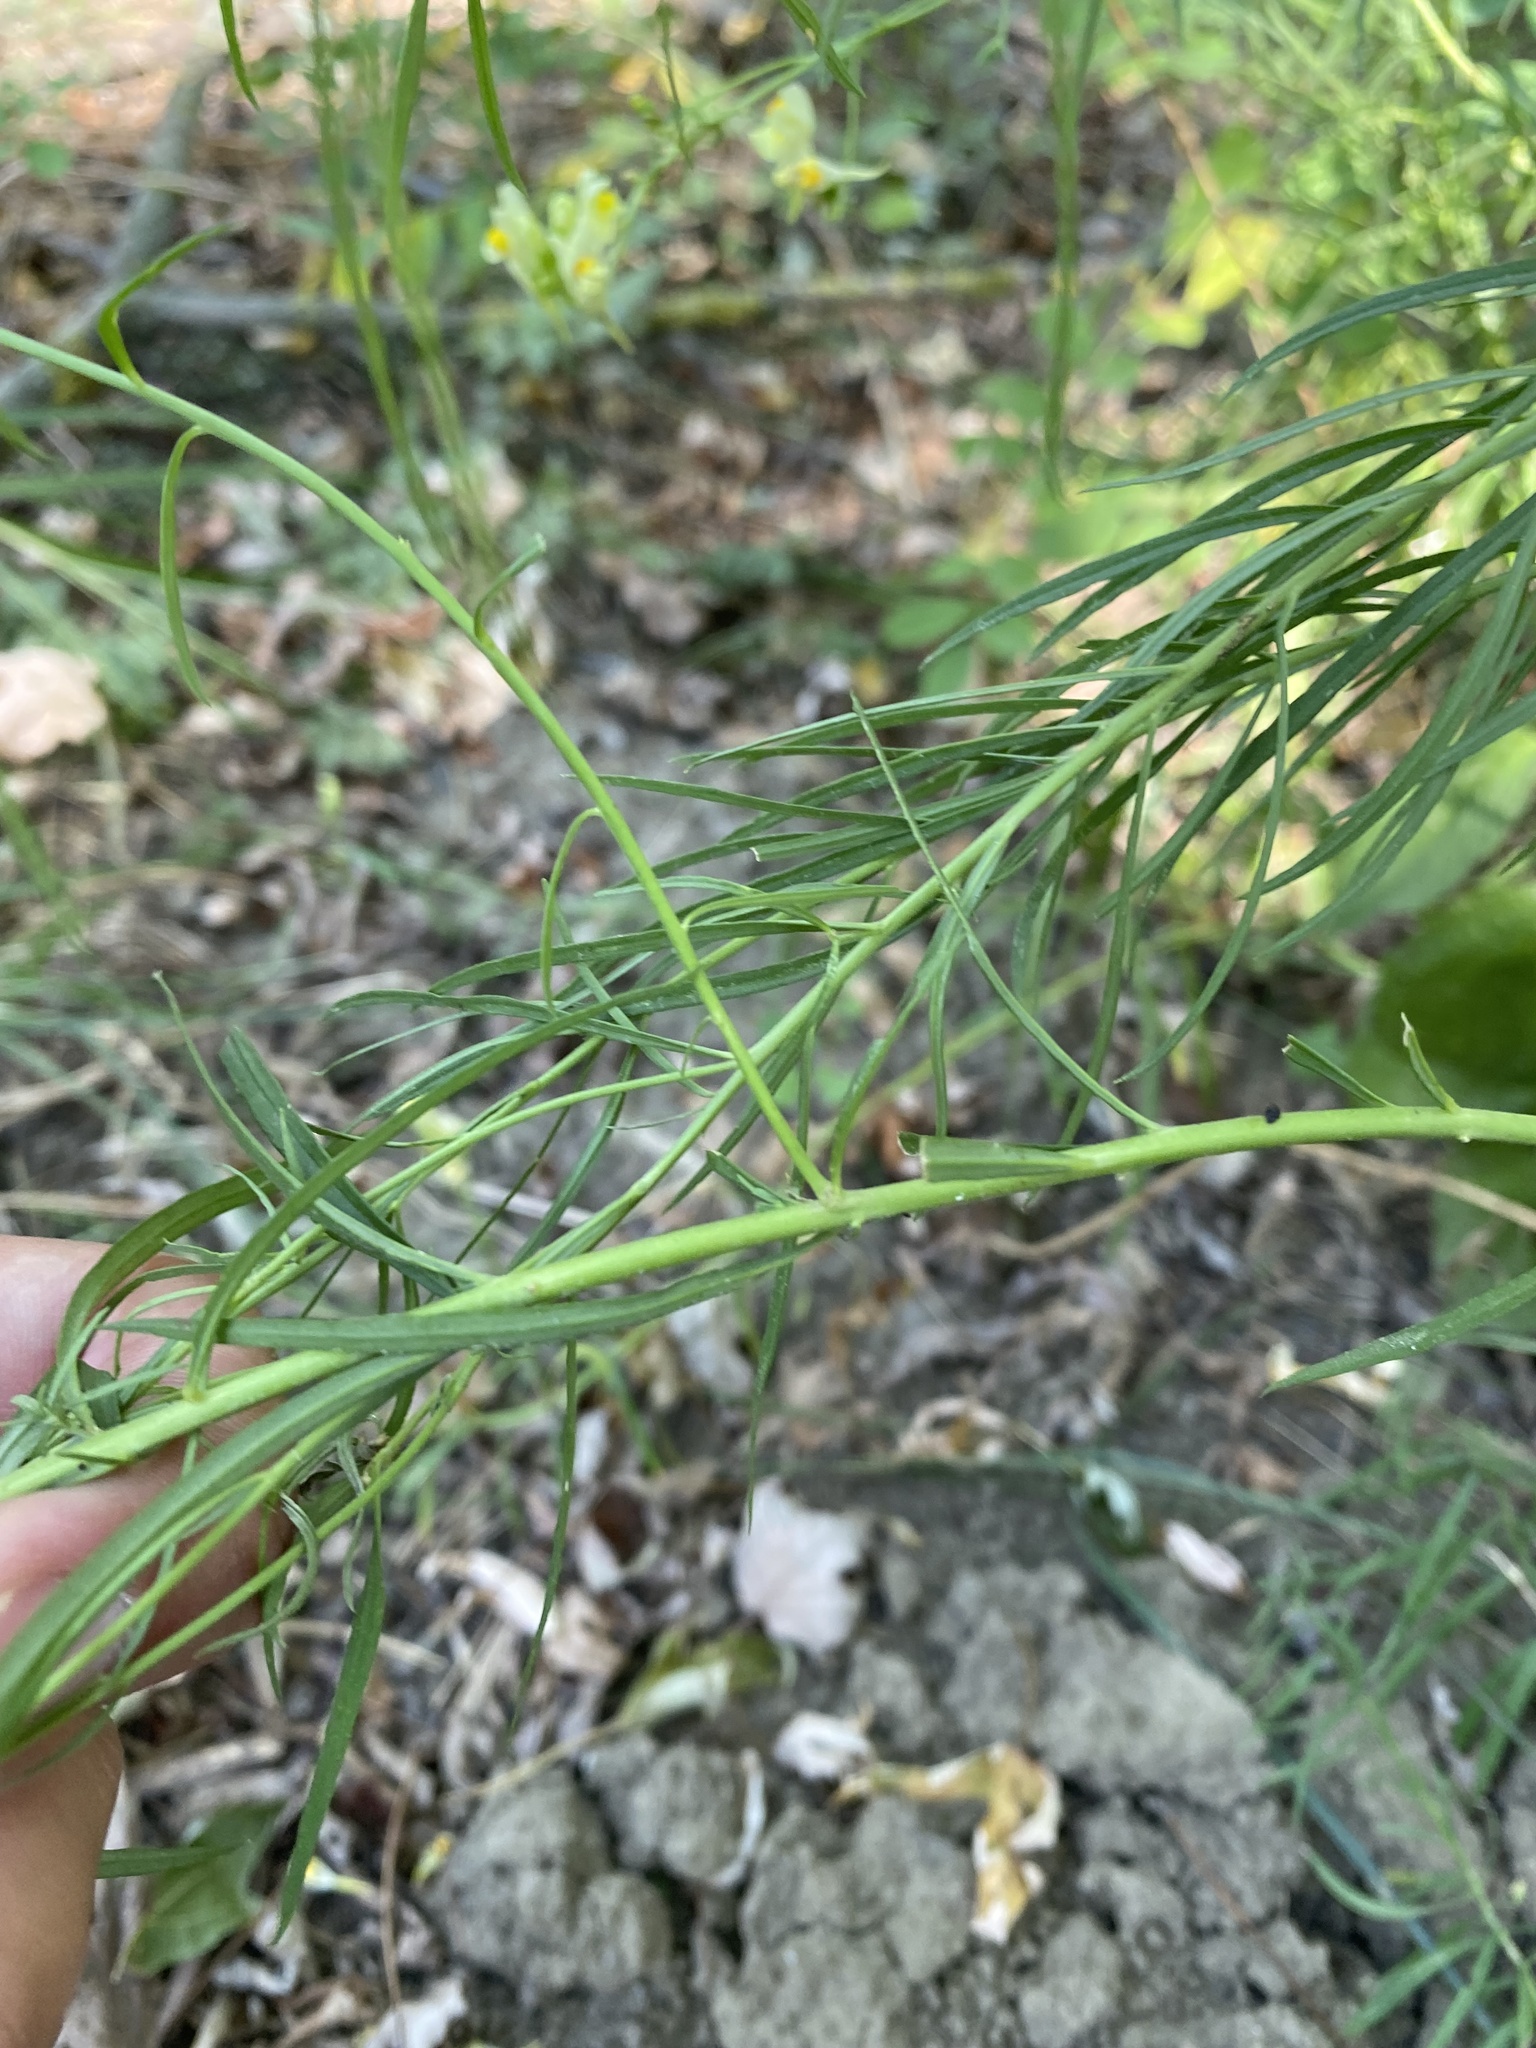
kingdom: Plantae
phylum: Tracheophyta
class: Magnoliopsida
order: Lamiales
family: Plantaginaceae
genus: Linaria
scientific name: Linaria vulgaris
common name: Butter and eggs
